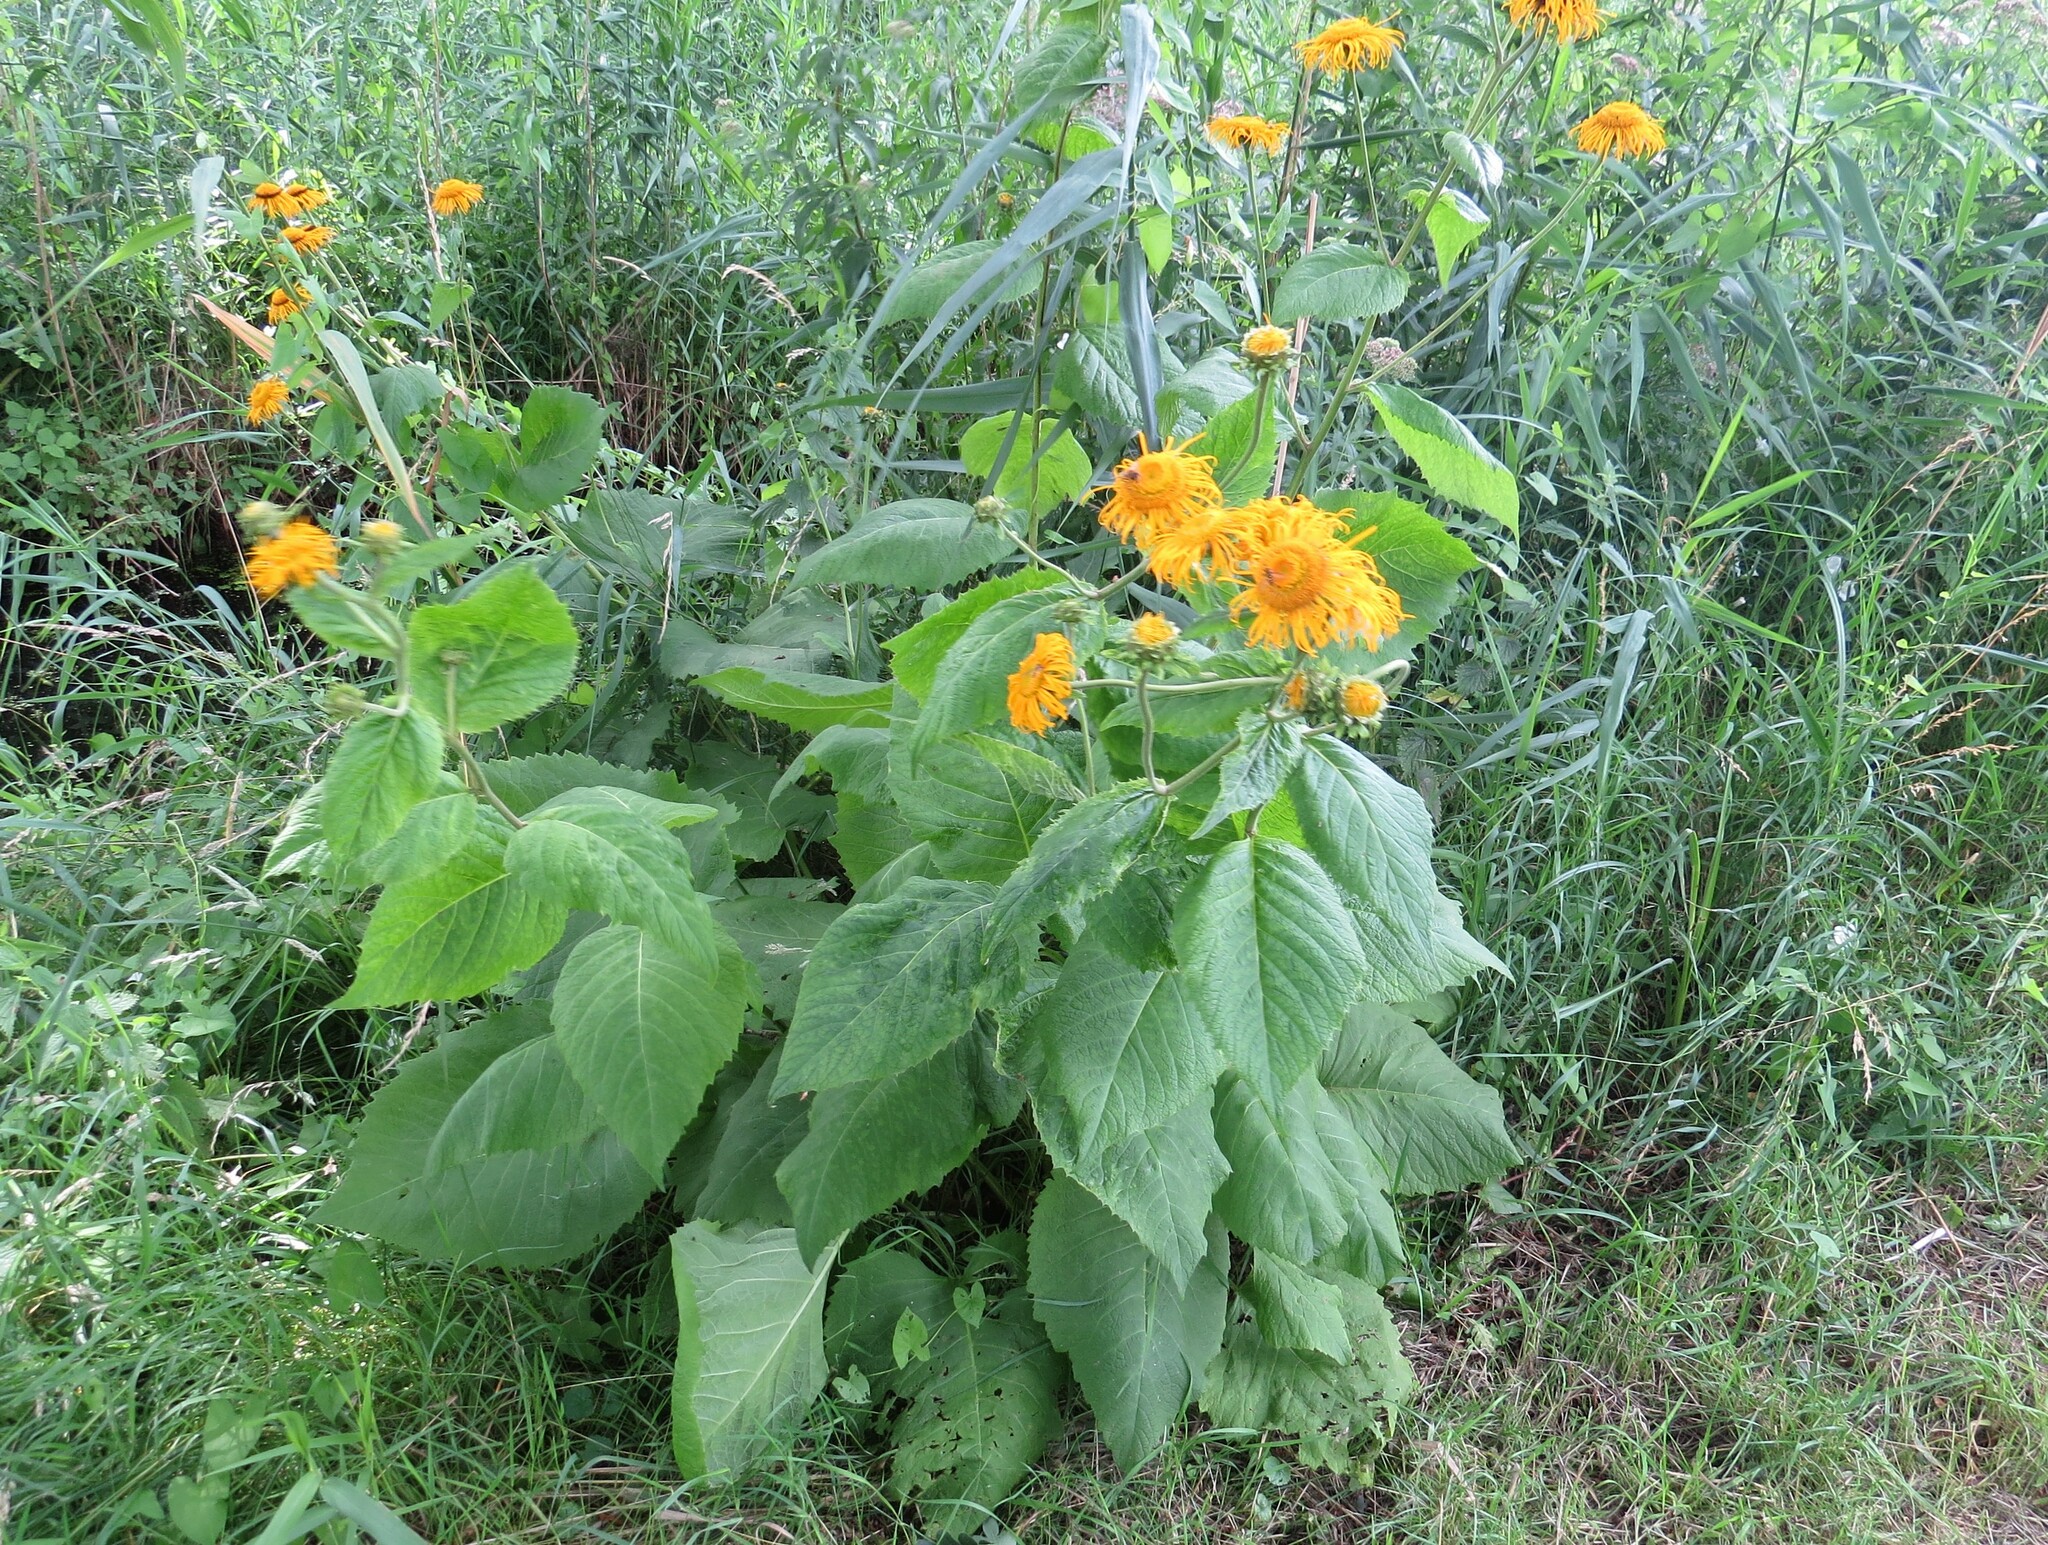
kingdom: Plantae
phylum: Tracheophyta
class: Magnoliopsida
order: Asterales
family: Asteraceae
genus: Telekia
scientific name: Telekia speciosa
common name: Yellow oxeye
